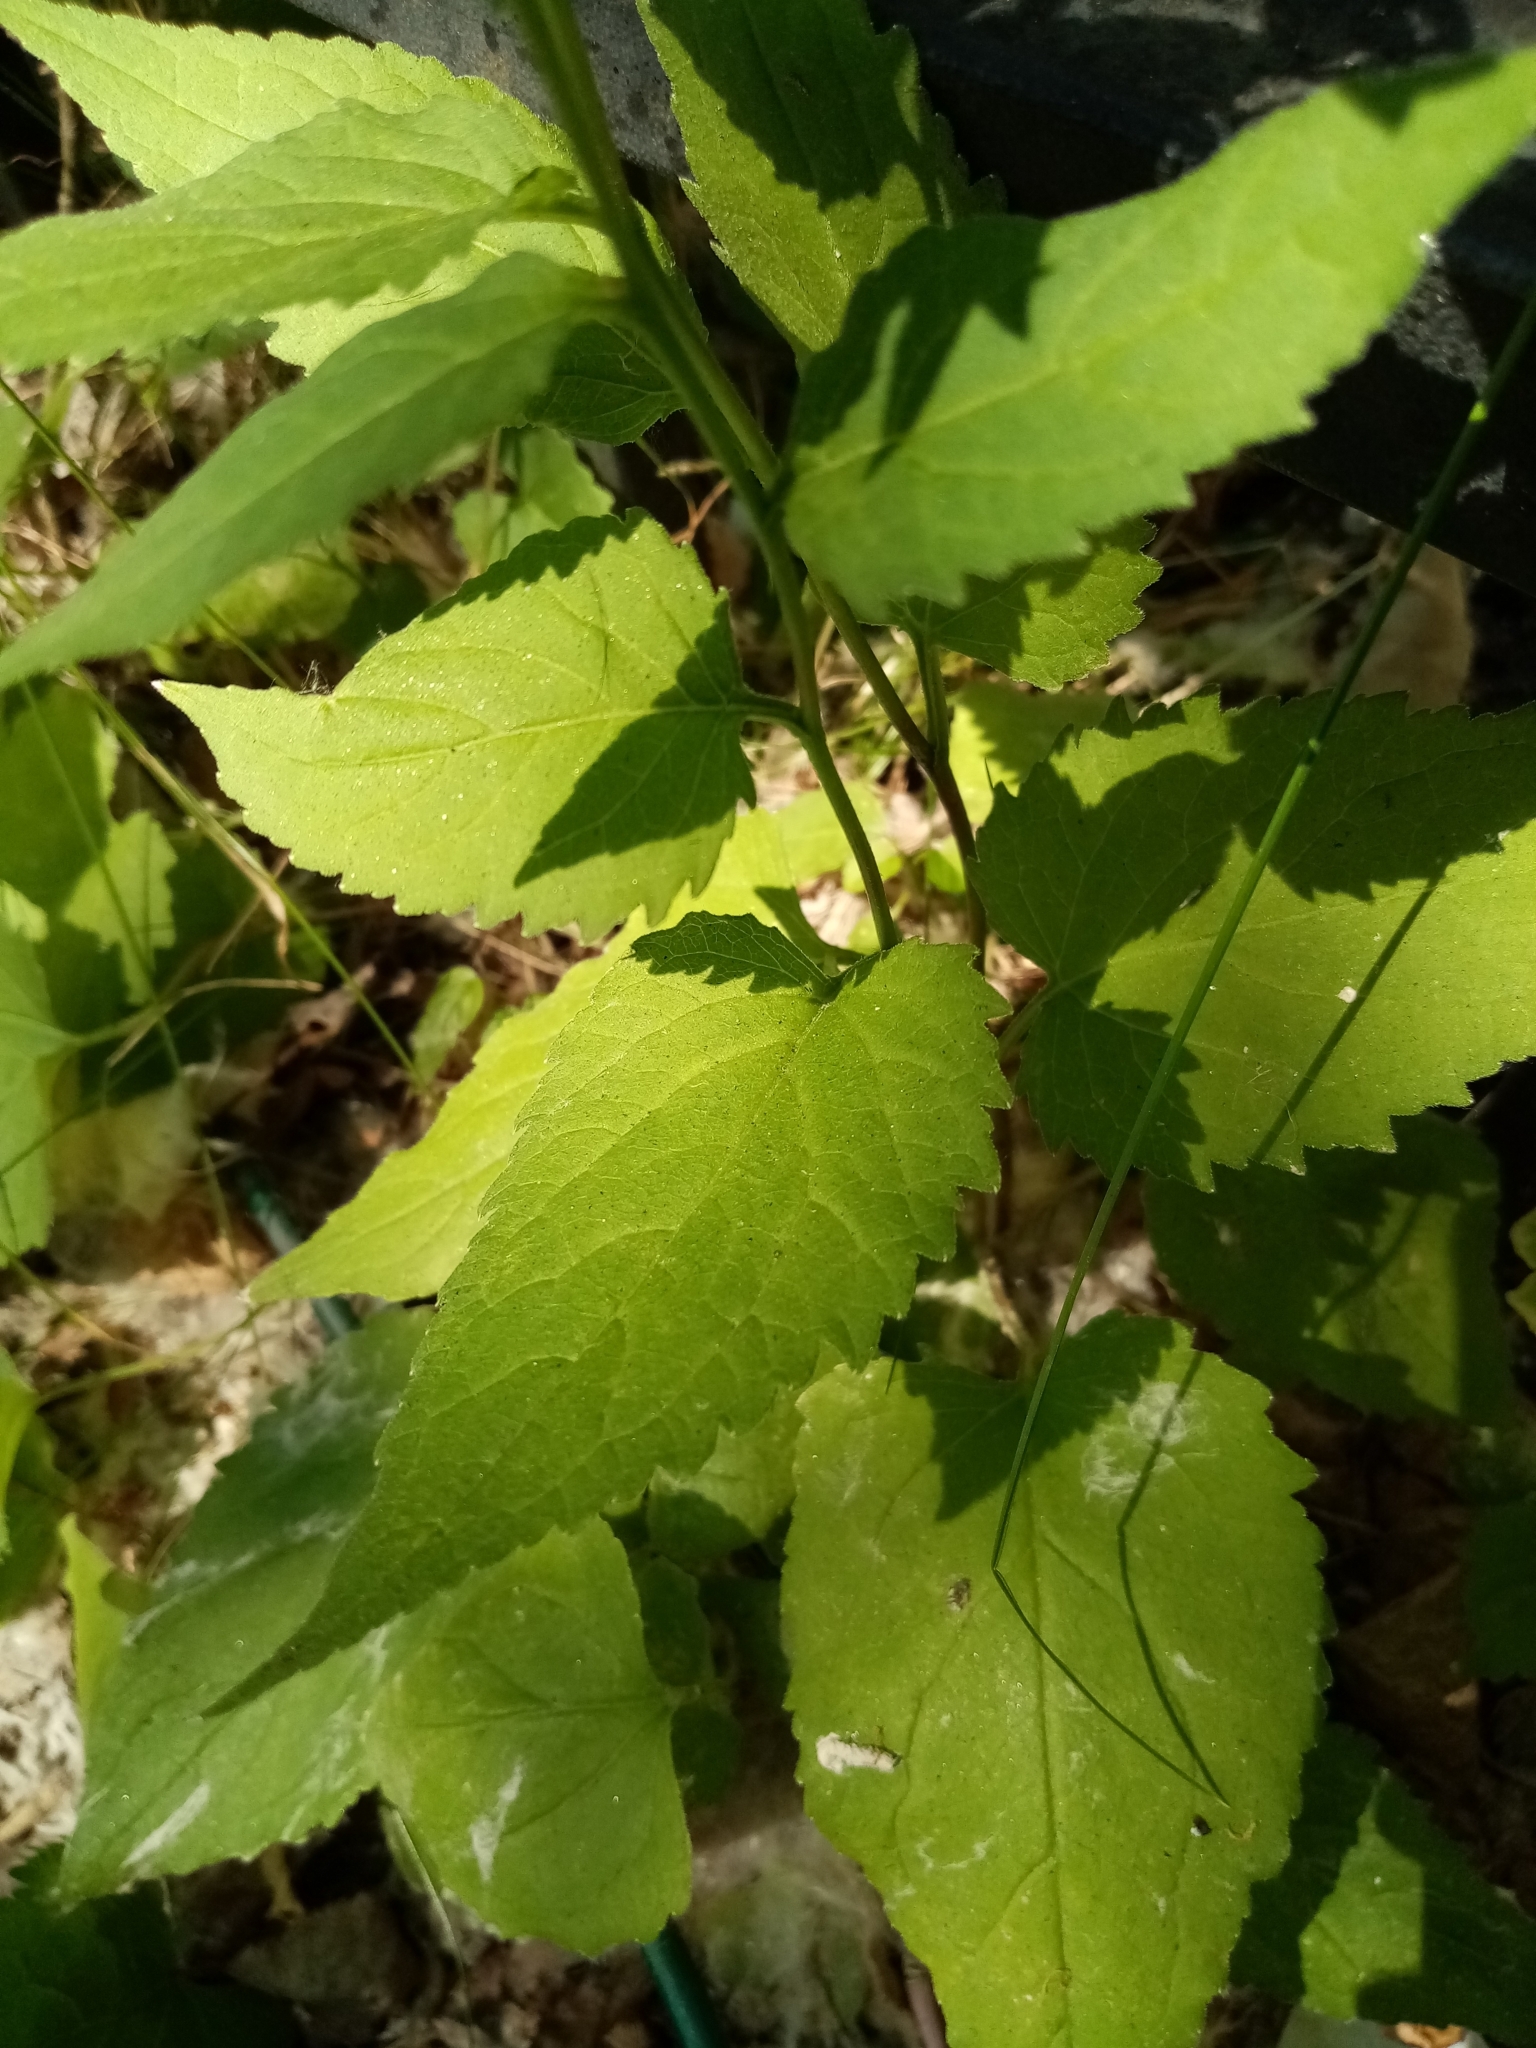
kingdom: Plantae
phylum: Tracheophyta
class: Magnoliopsida
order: Asterales
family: Campanulaceae
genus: Campanula
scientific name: Campanula rapunculoides
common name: Creeping bellflower
